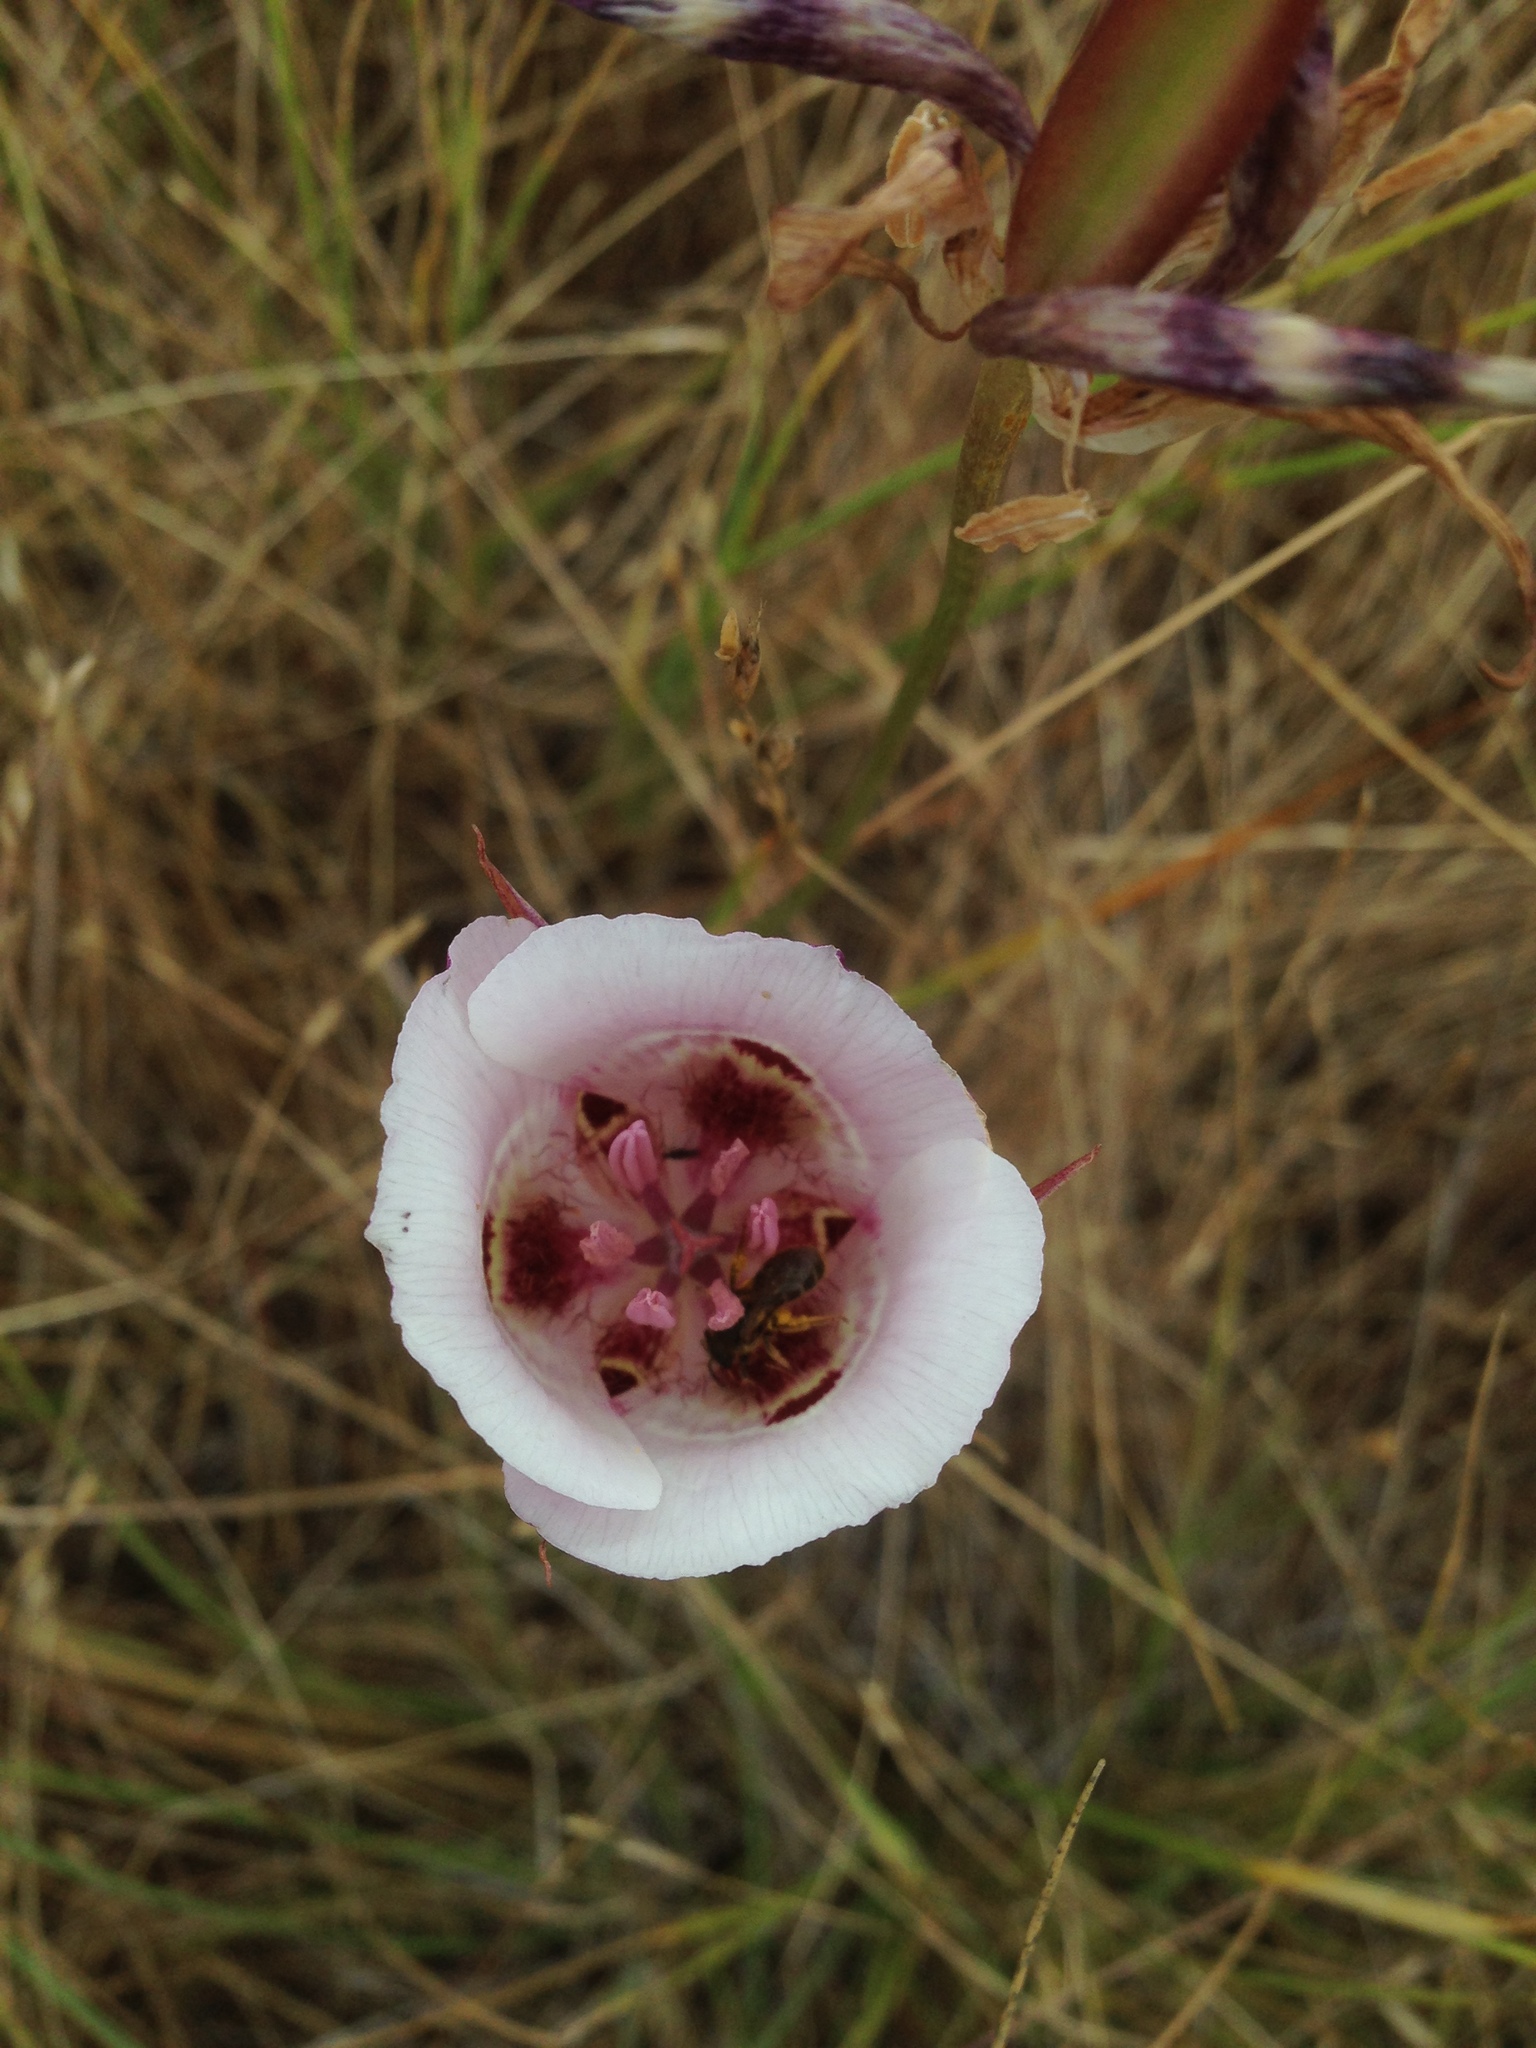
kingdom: Plantae
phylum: Tracheophyta
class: Liliopsida
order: Liliales
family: Liliaceae
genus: Calochortus
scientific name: Calochortus argillosus
